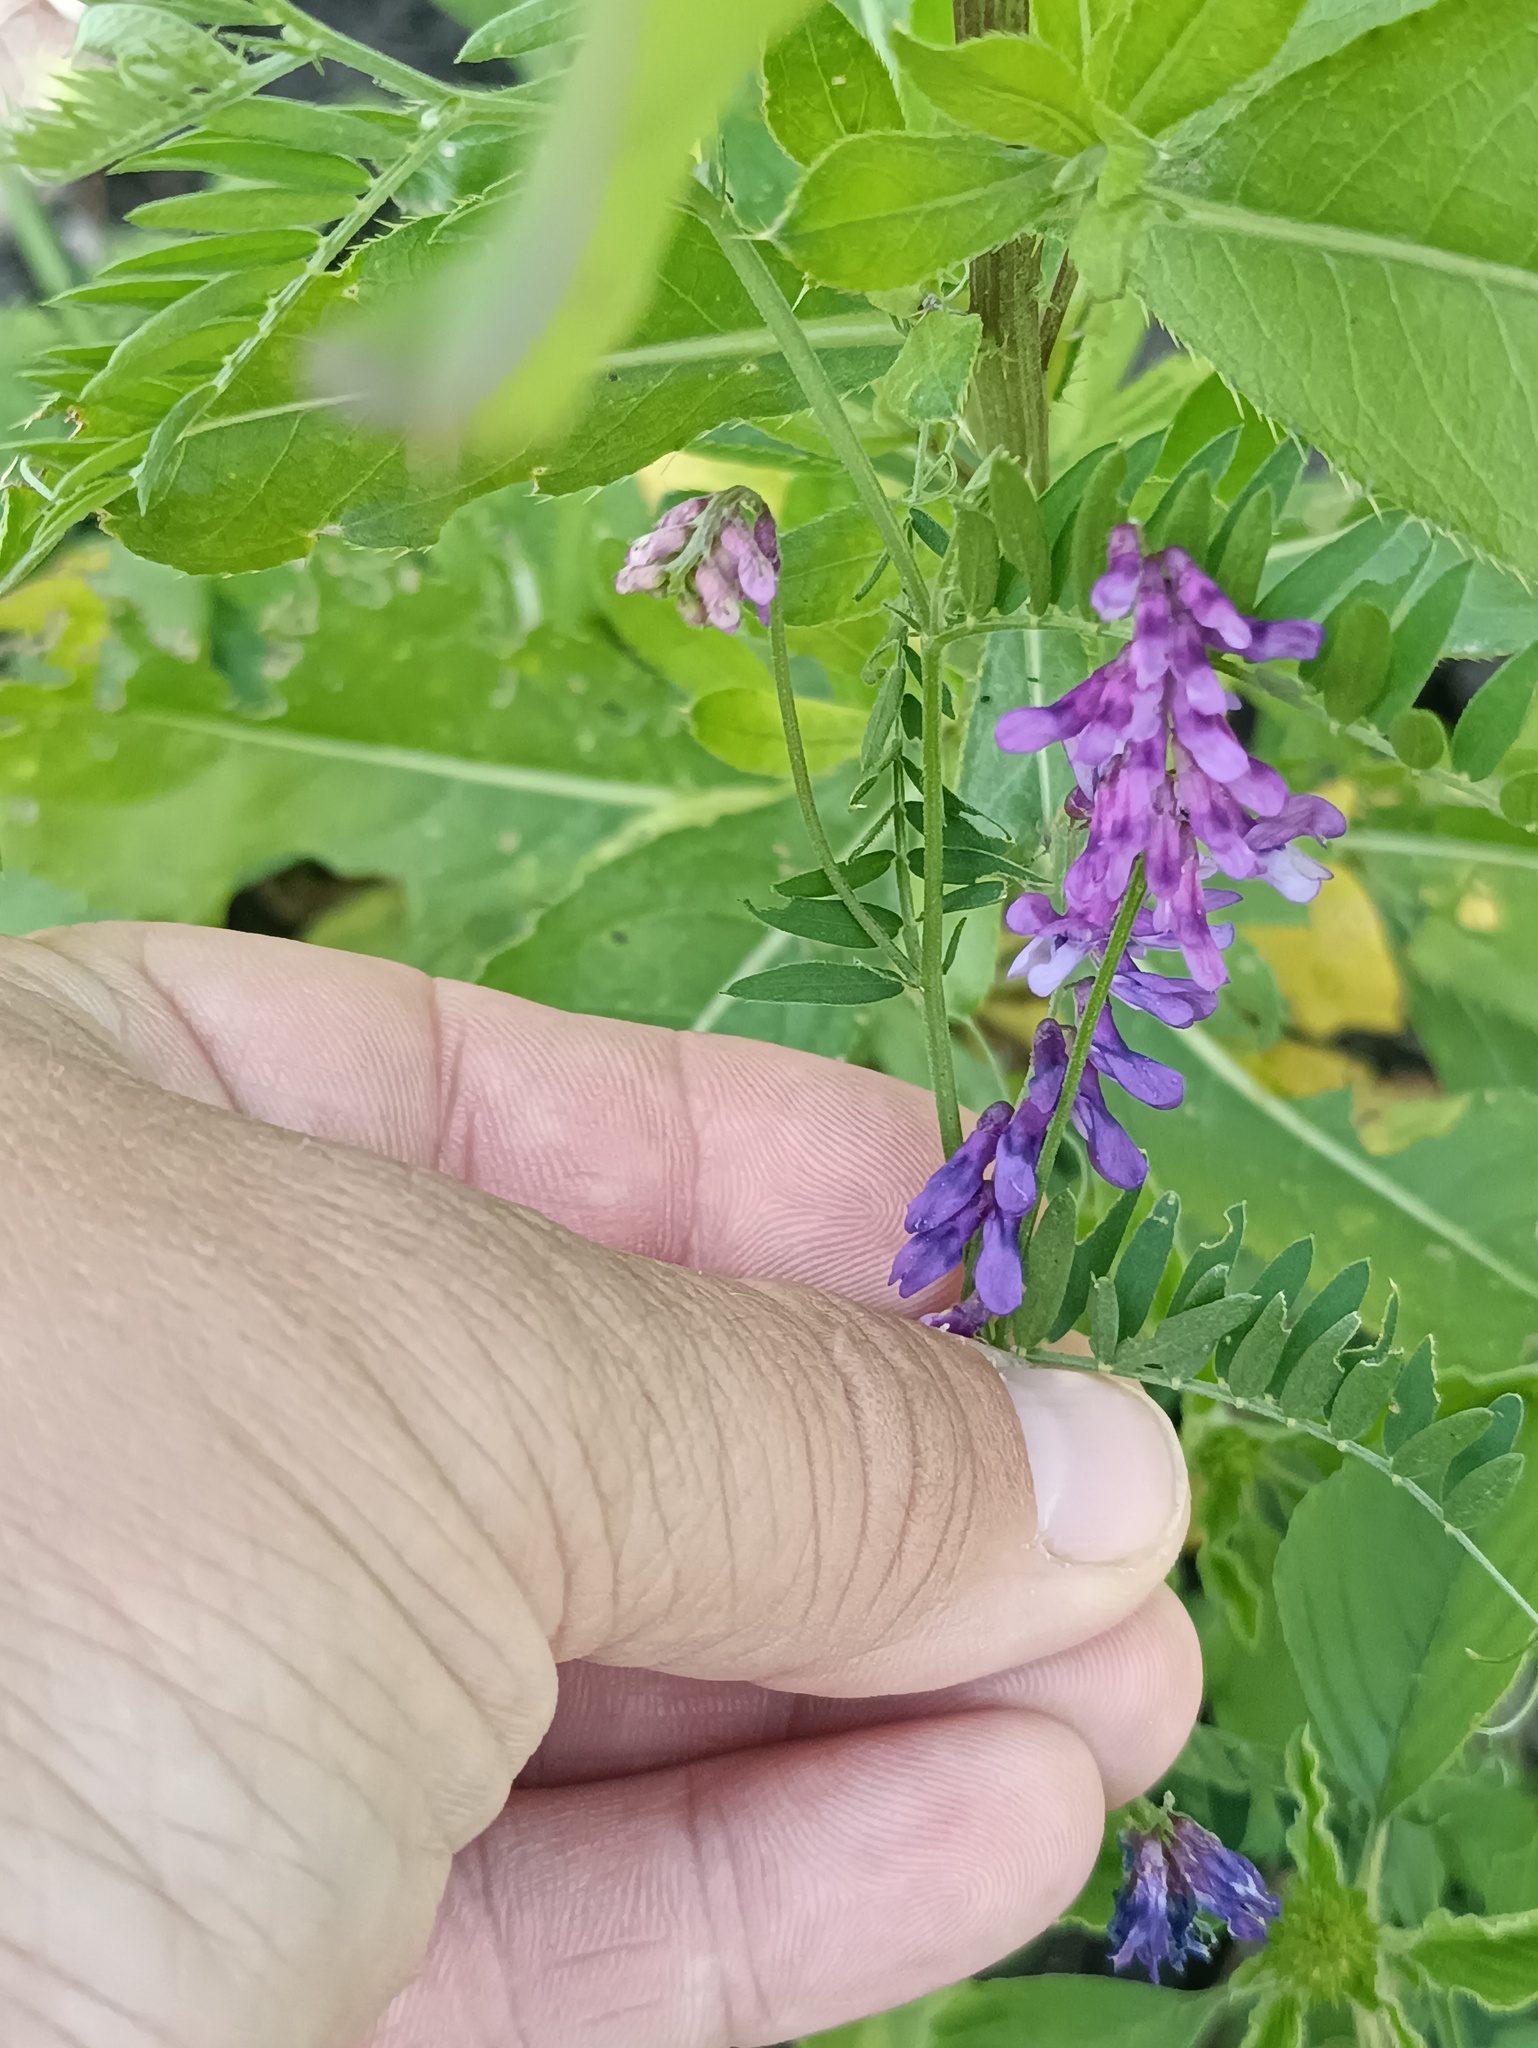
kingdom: Plantae
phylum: Tracheophyta
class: Magnoliopsida
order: Fabales
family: Fabaceae
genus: Vicia
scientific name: Vicia cracca
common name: Bird vetch
